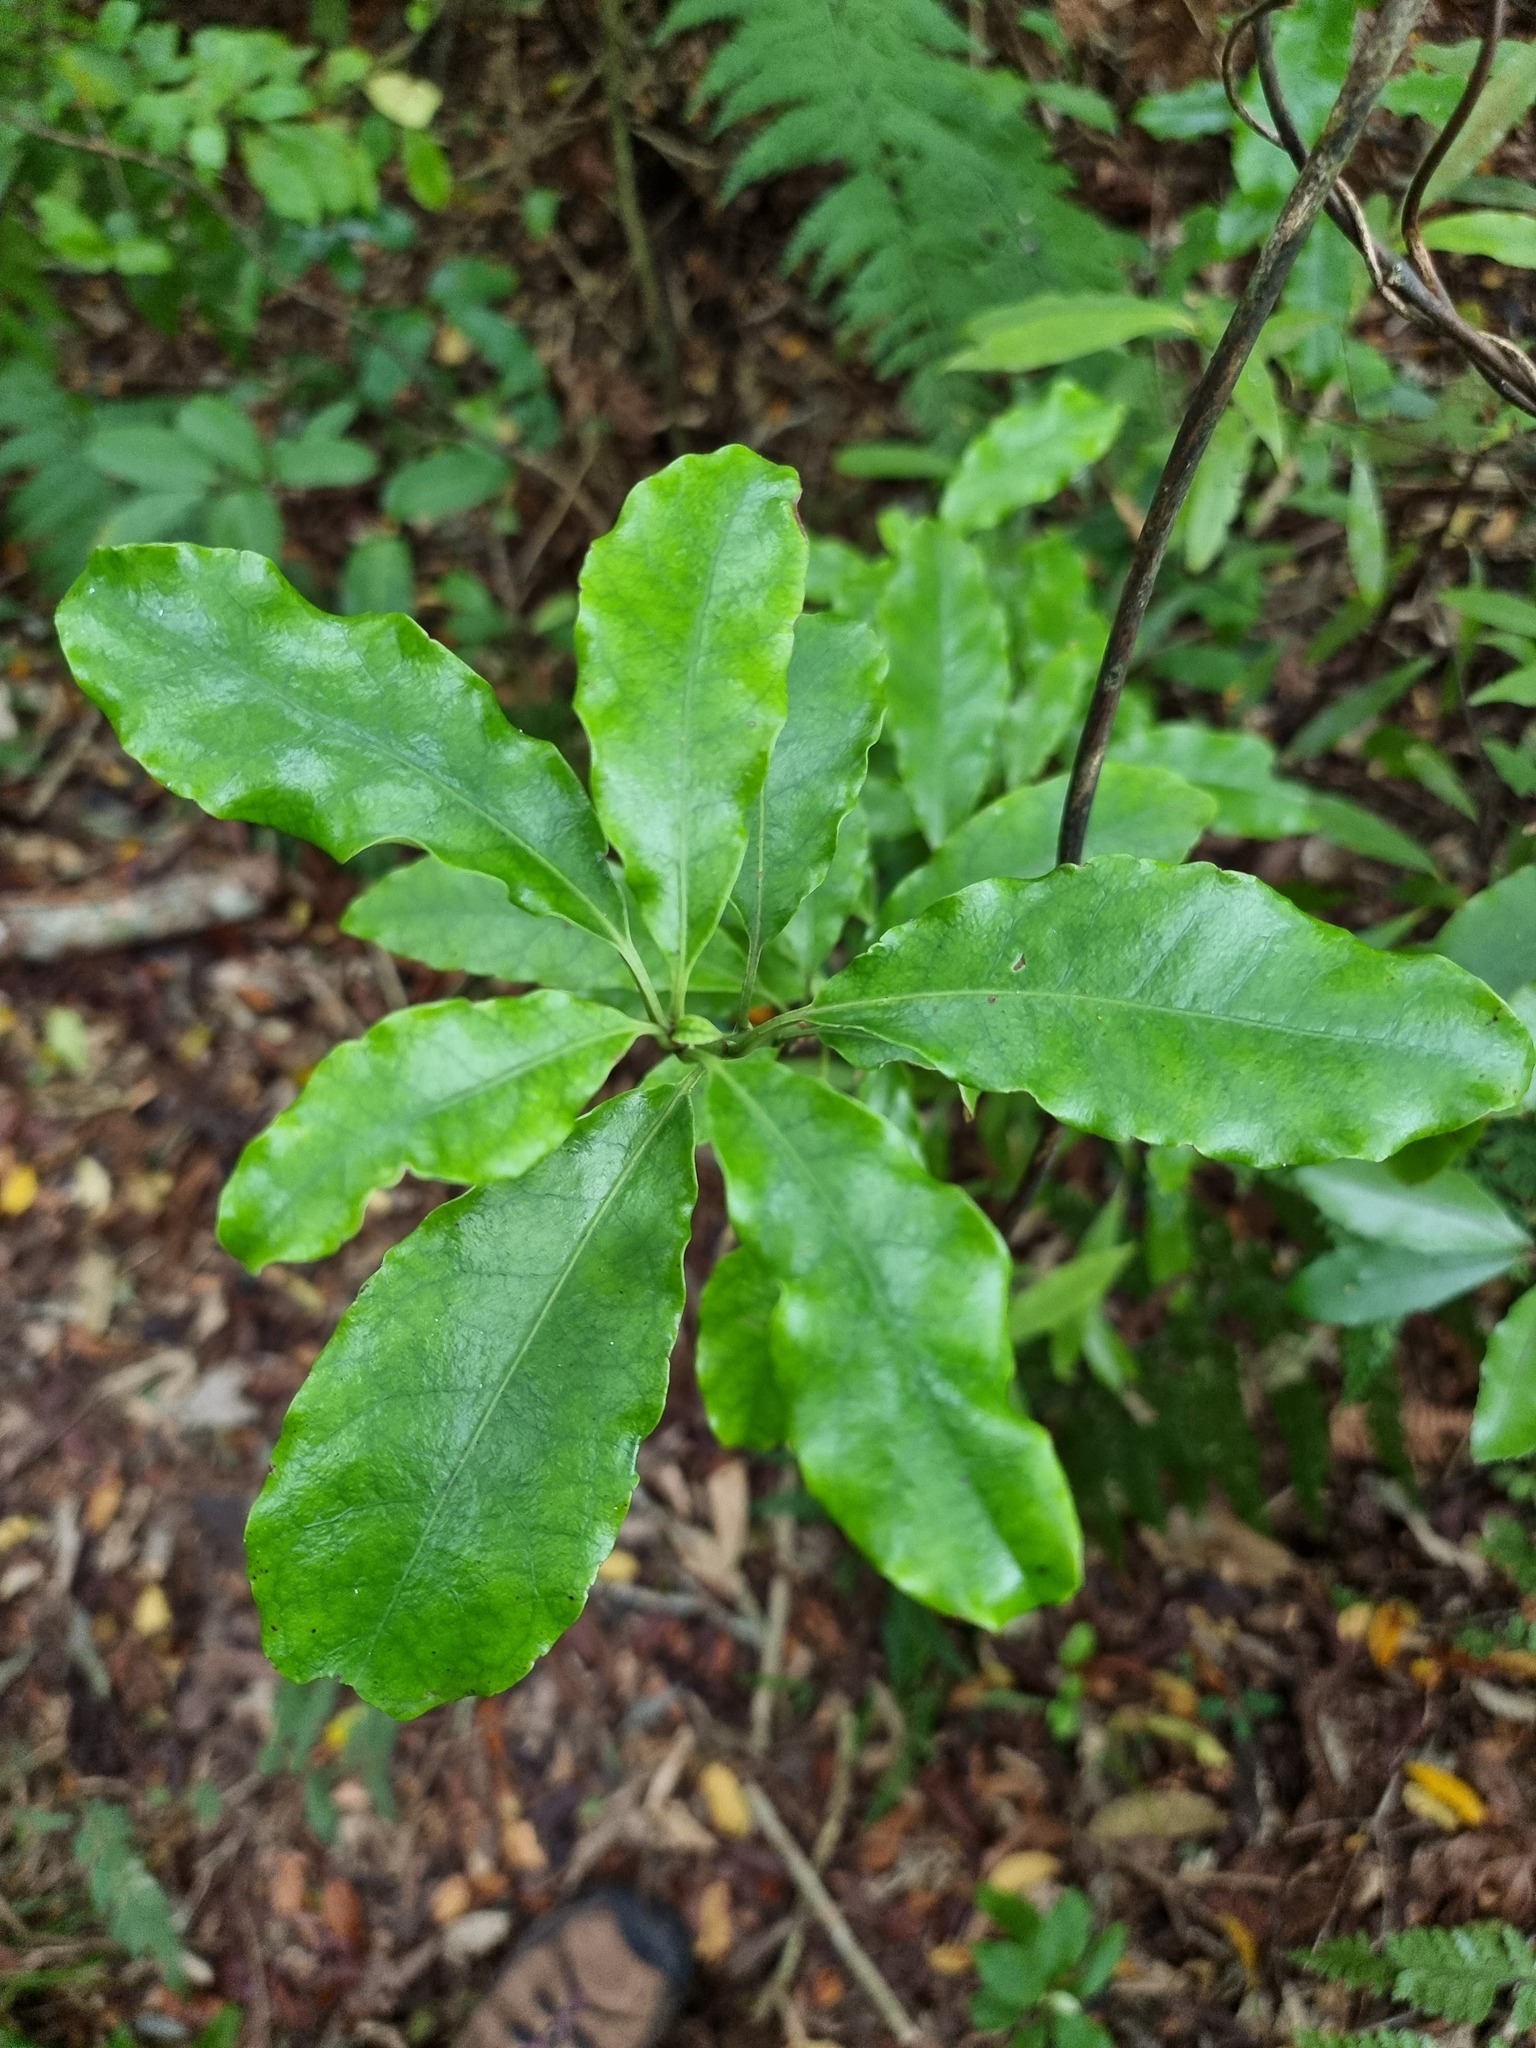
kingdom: Plantae
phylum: Tracheophyta
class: Magnoliopsida
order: Asterales
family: Alseuosmiaceae
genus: Alseuosmia
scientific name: Alseuosmia macrophylla
